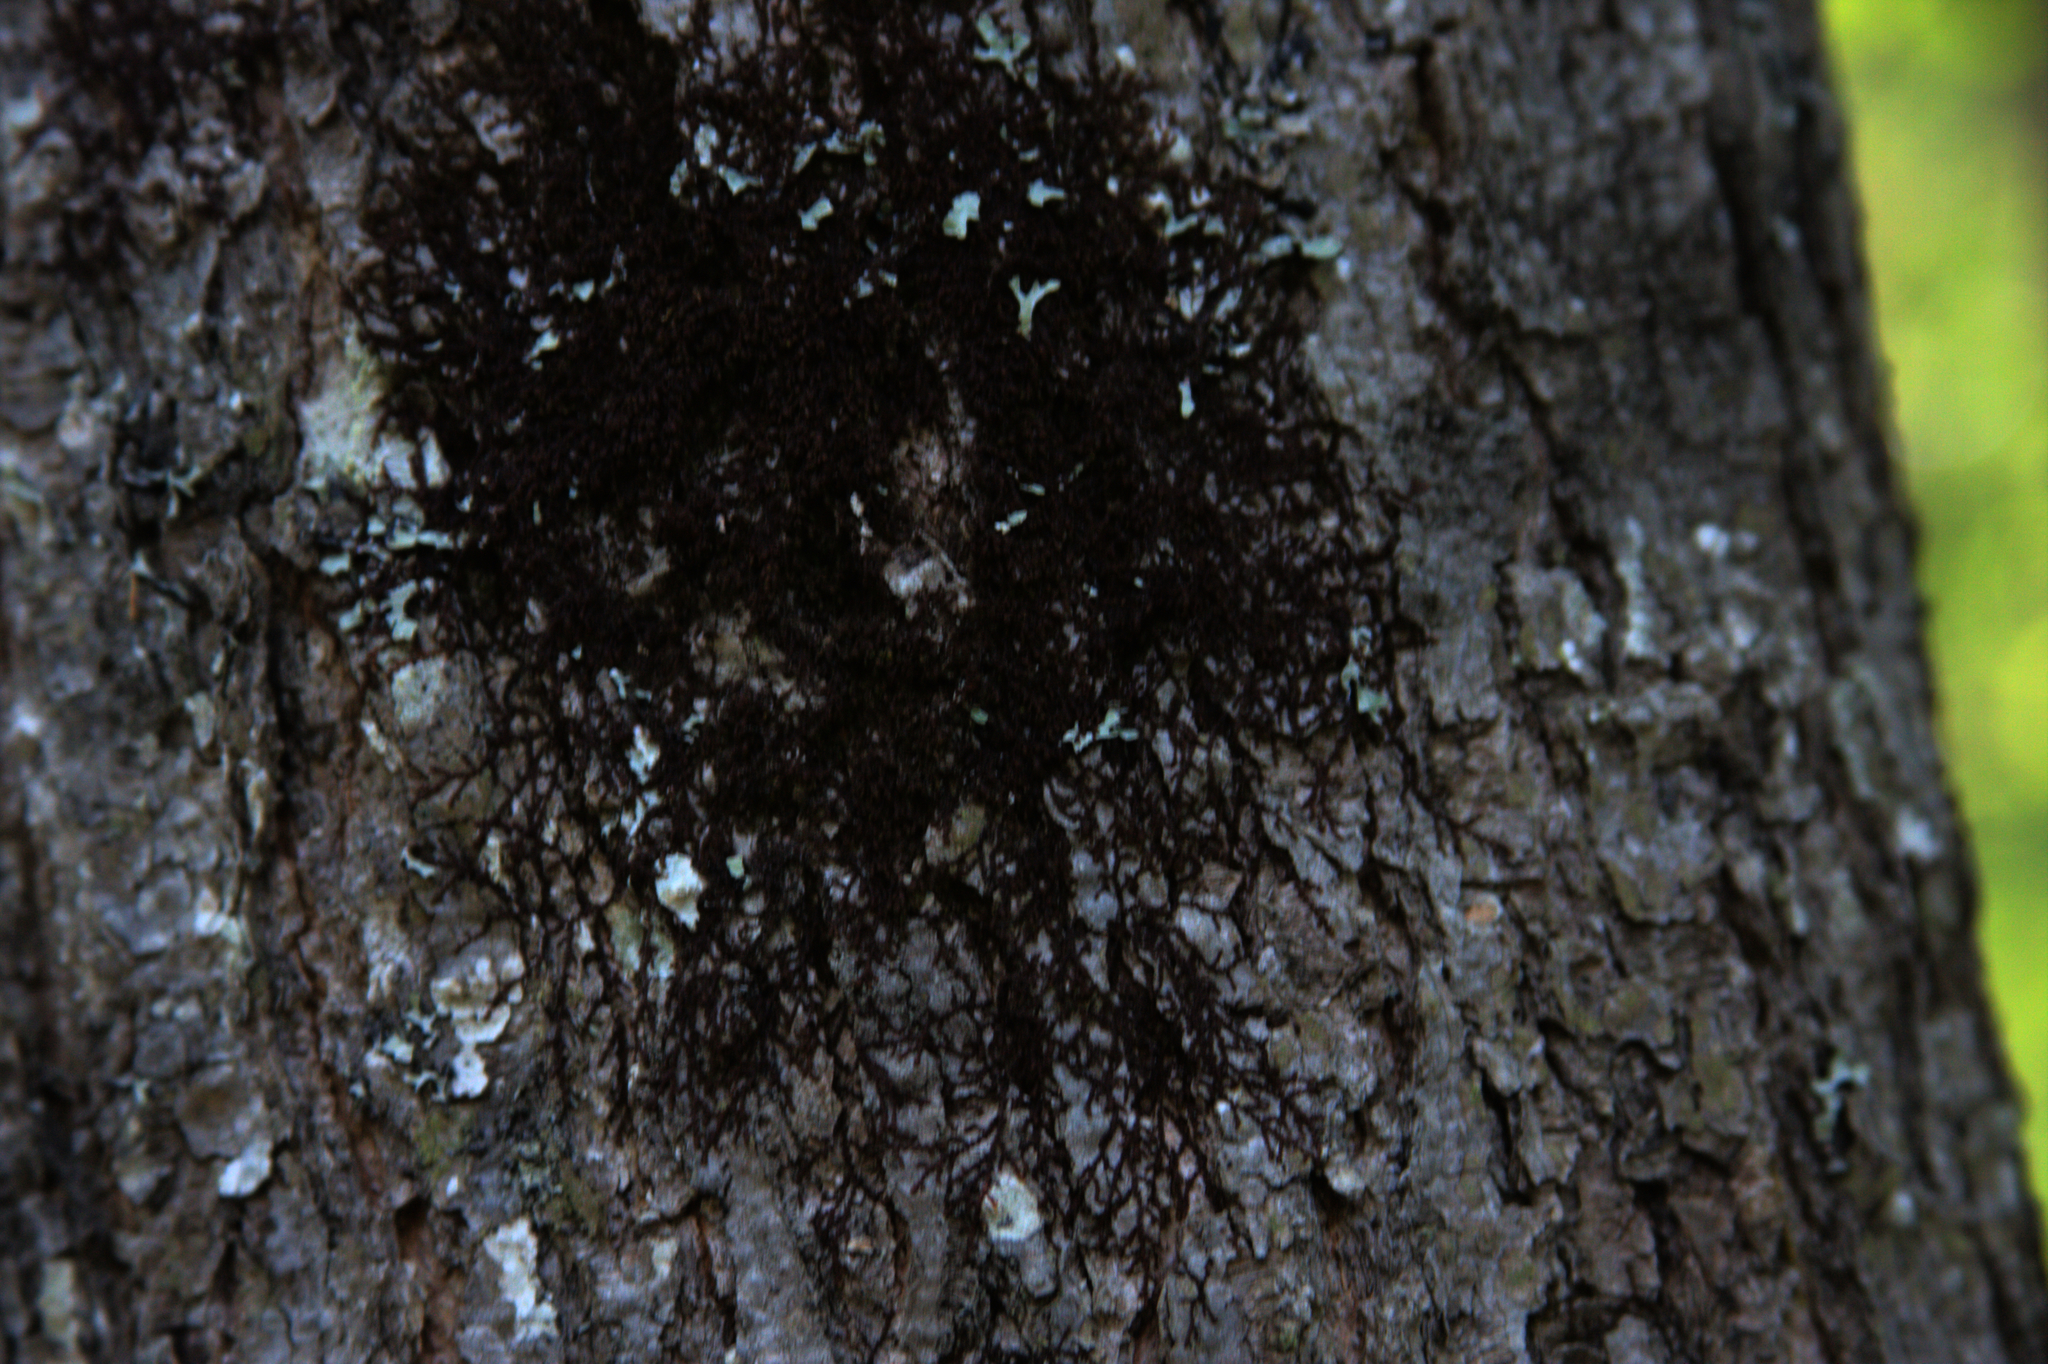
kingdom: Plantae
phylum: Marchantiophyta
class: Jungermanniopsida
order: Porellales
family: Frullaniaceae
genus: Frullania
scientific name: Frullania eboracensis
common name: New york scalewort
